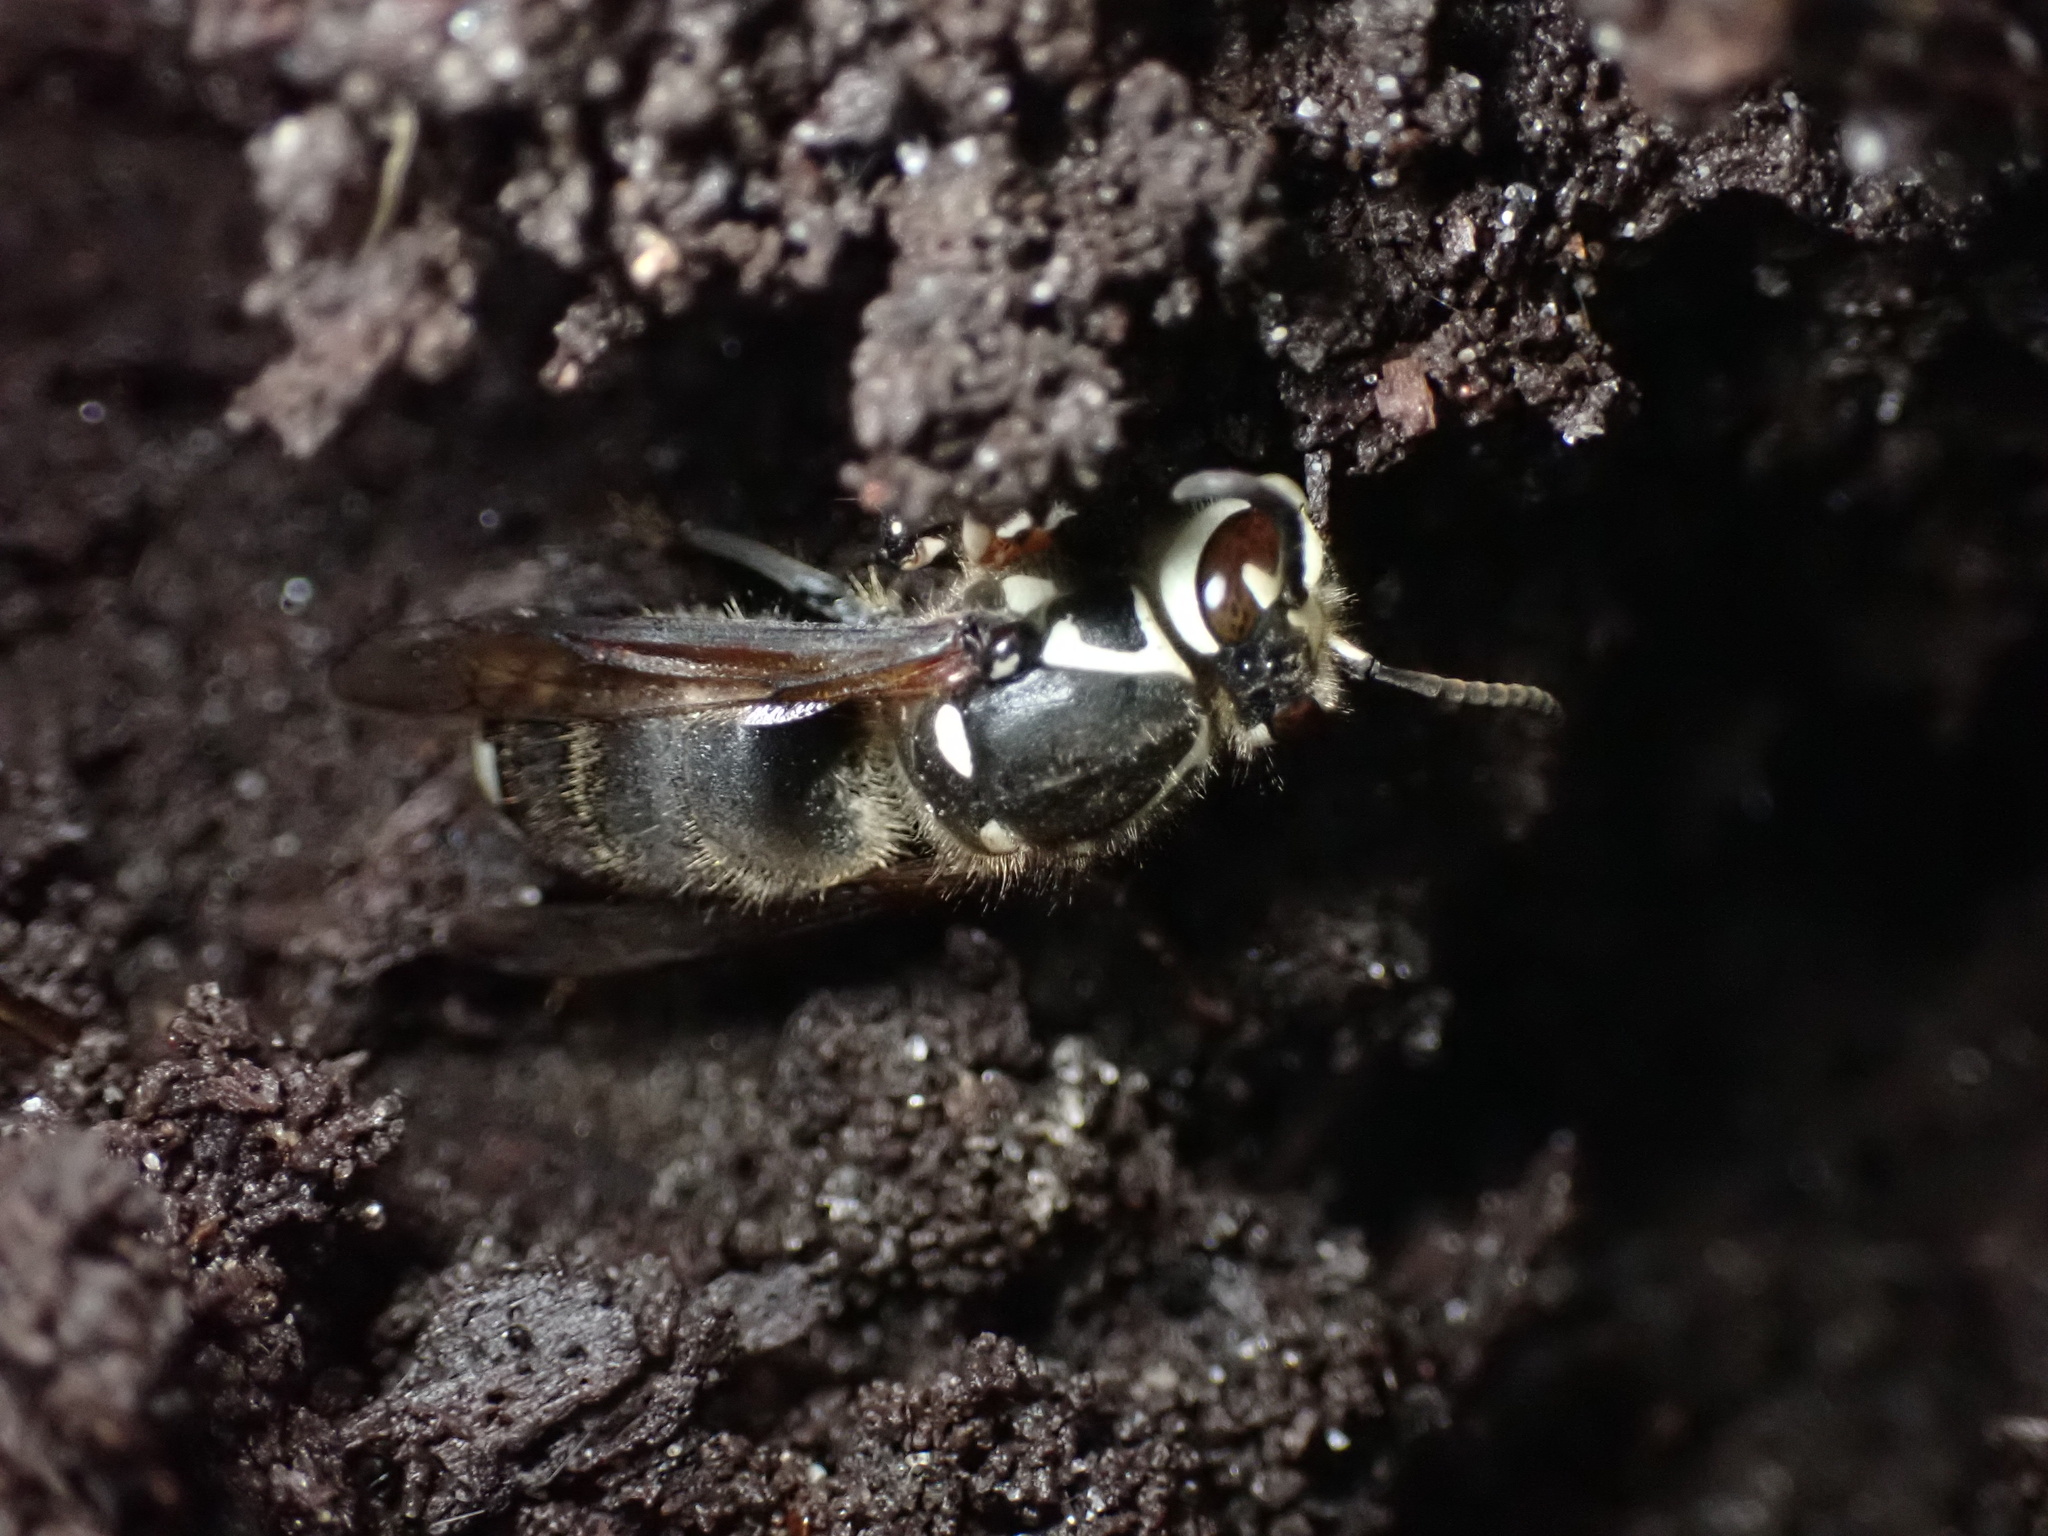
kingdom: Animalia
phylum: Arthropoda
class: Insecta
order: Hymenoptera
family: Vespidae
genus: Dolichovespula
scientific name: Dolichovespula maculata
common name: Bald-faced hornet
